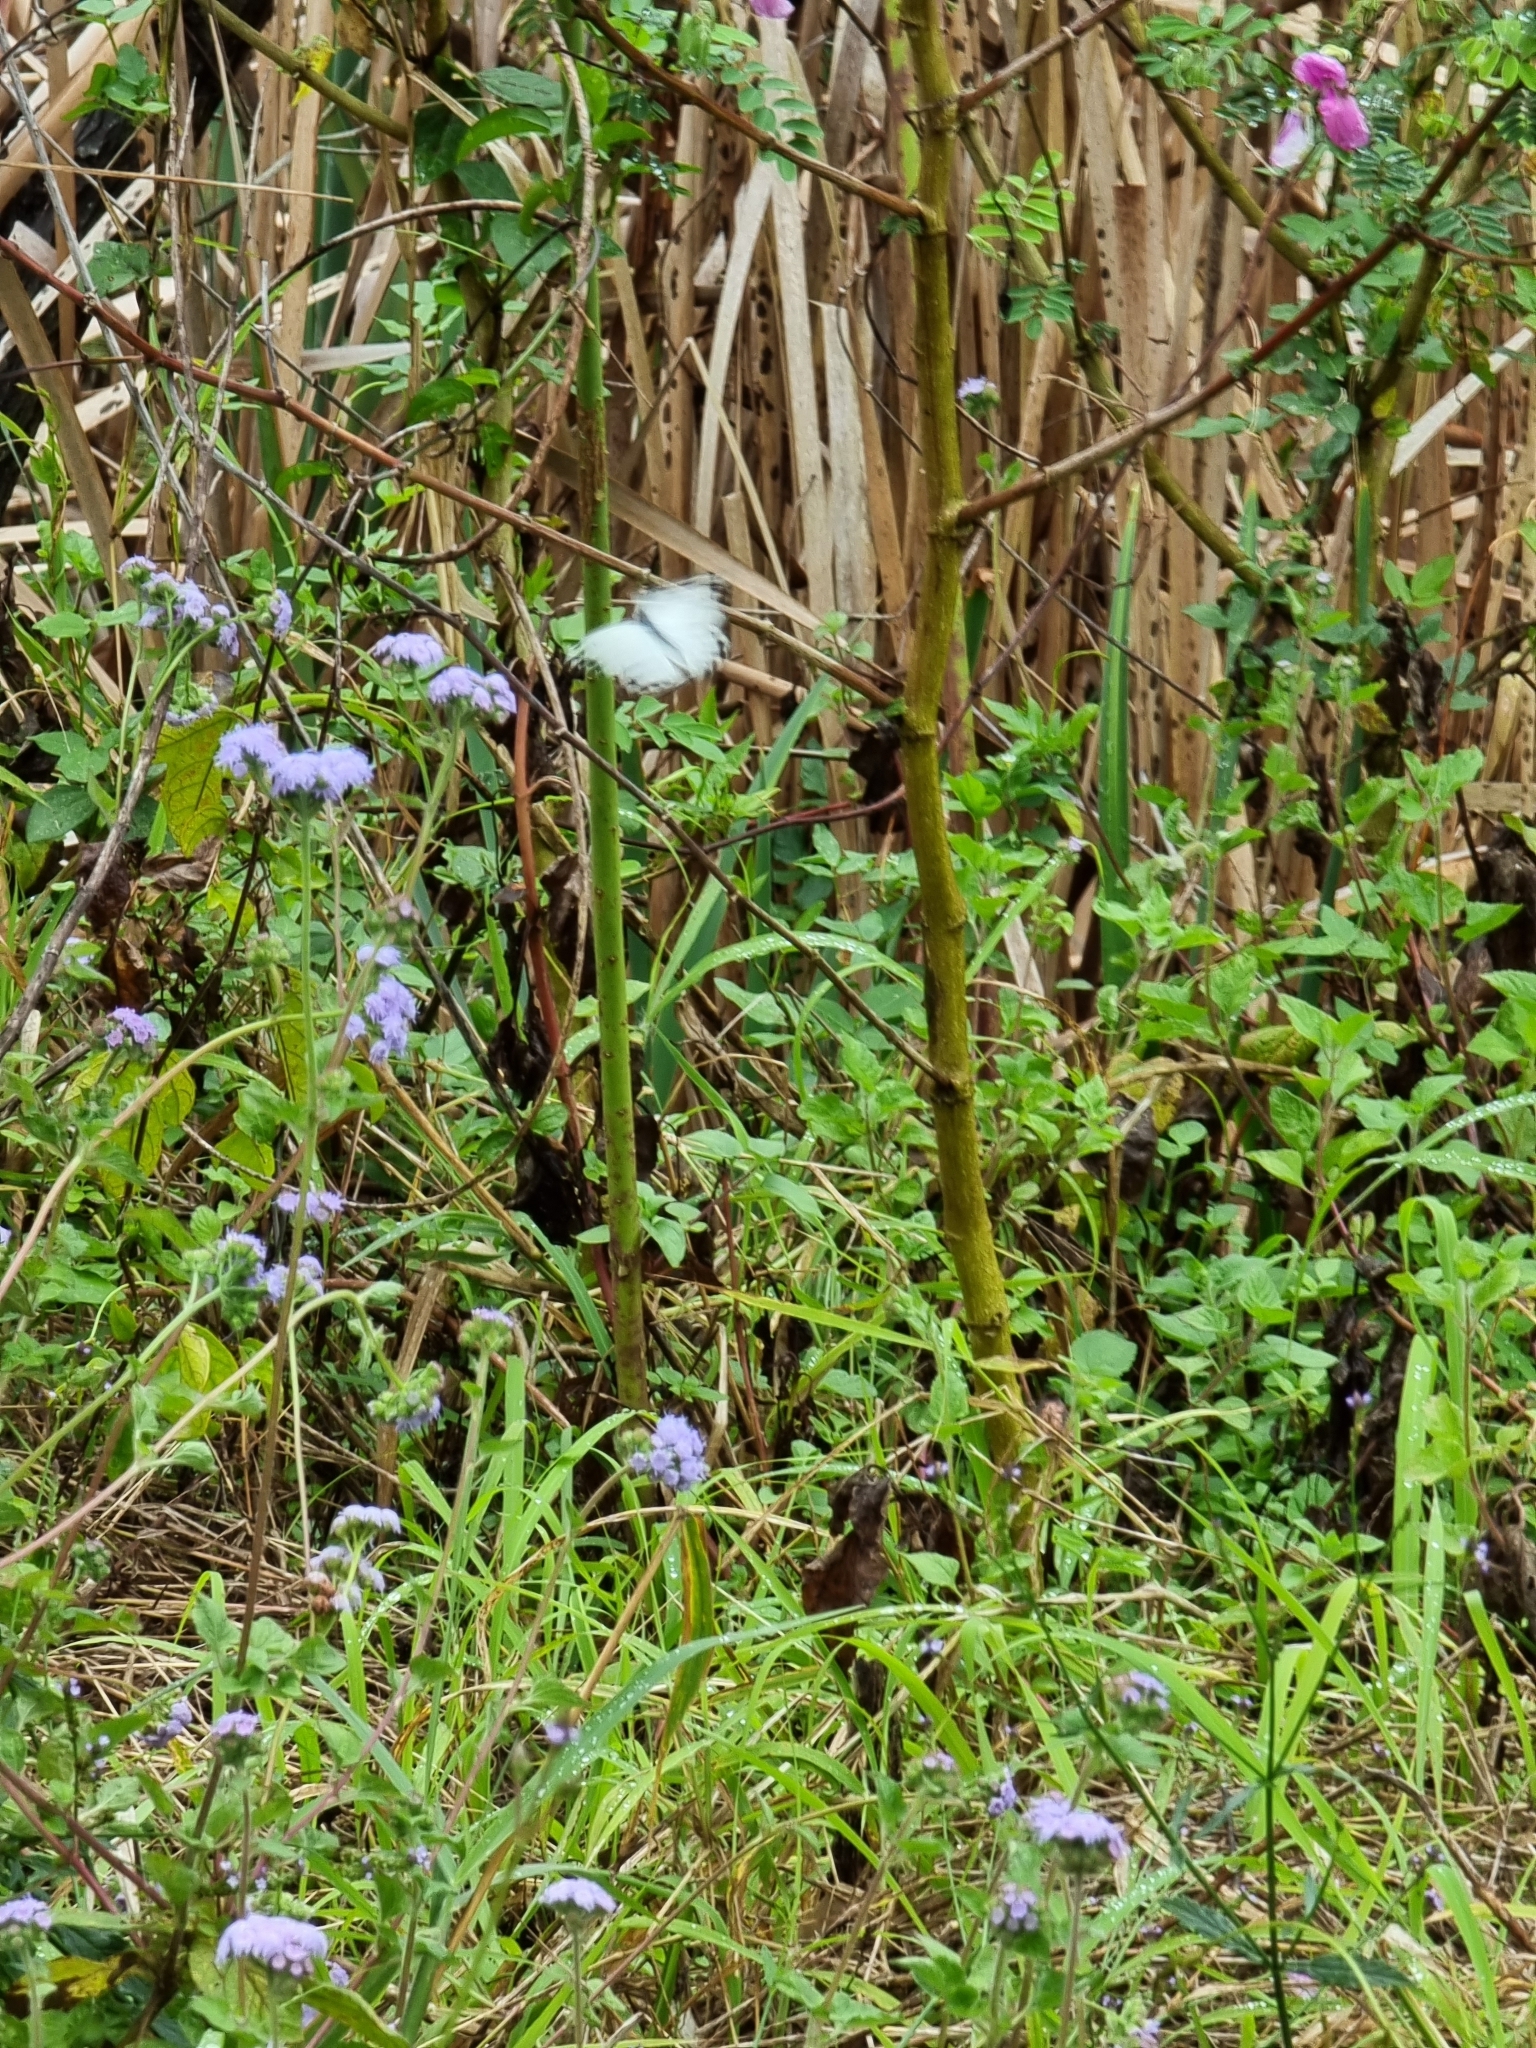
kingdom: Animalia
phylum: Arthropoda
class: Insecta
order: Lepidoptera
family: Pieridae
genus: Belenois
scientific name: Belenois java
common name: Caper white
